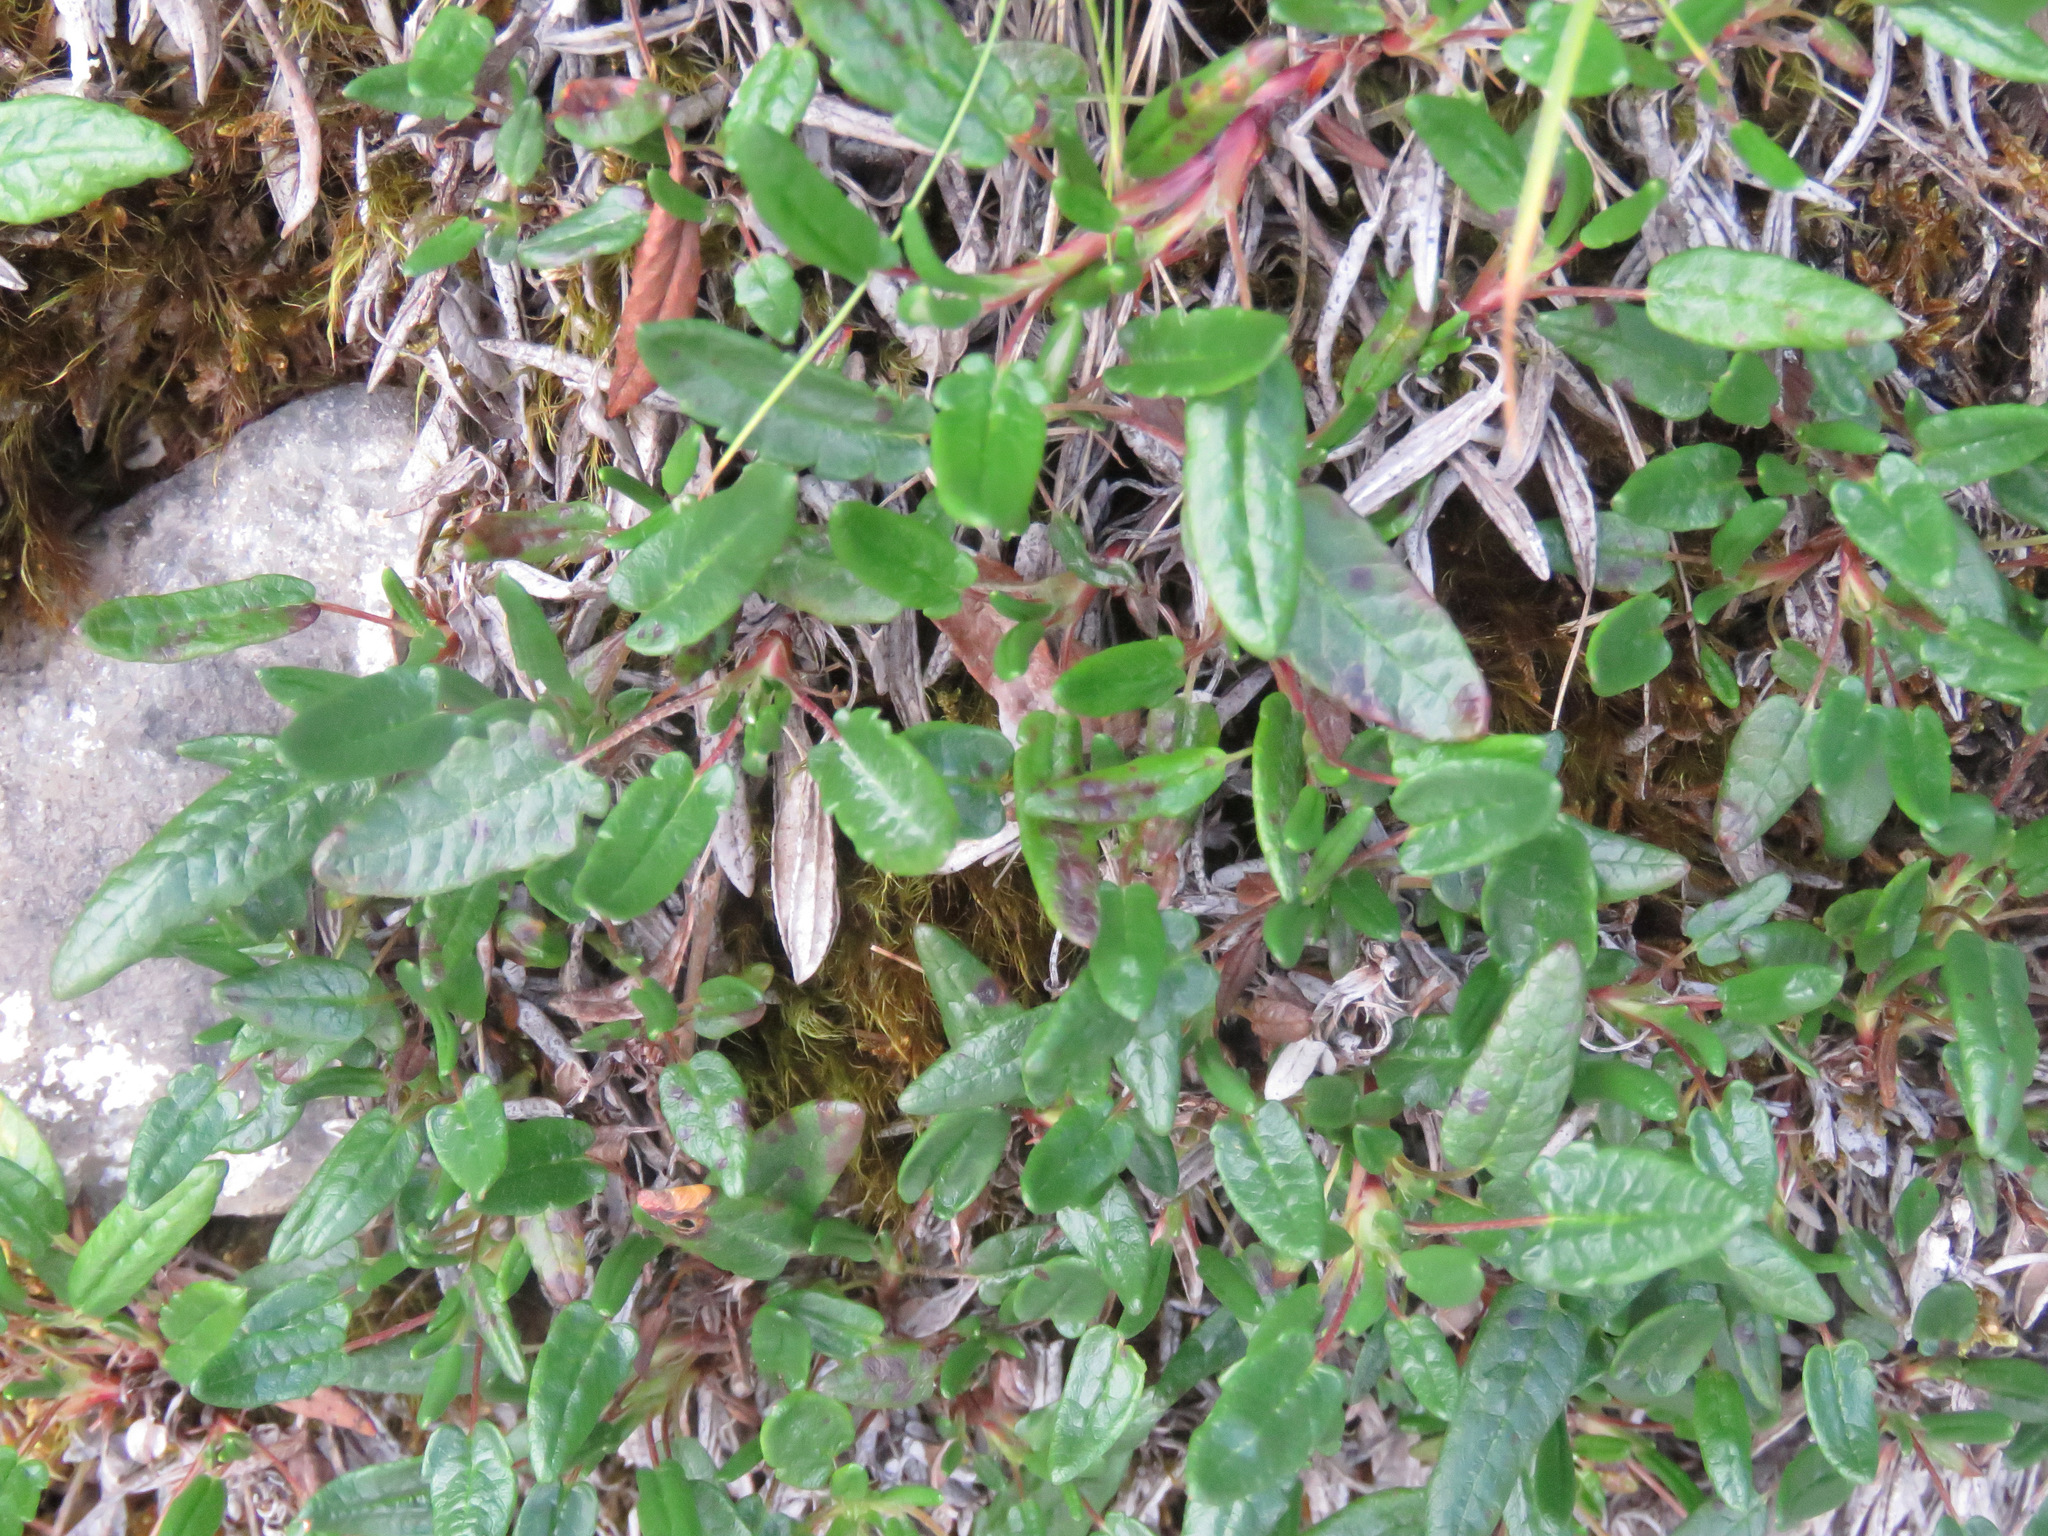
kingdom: Plantae
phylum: Tracheophyta
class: Magnoliopsida
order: Rosales
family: Rosaceae
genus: Dryas
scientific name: Dryas integrifolia
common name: Entire-leaved mountain avens
